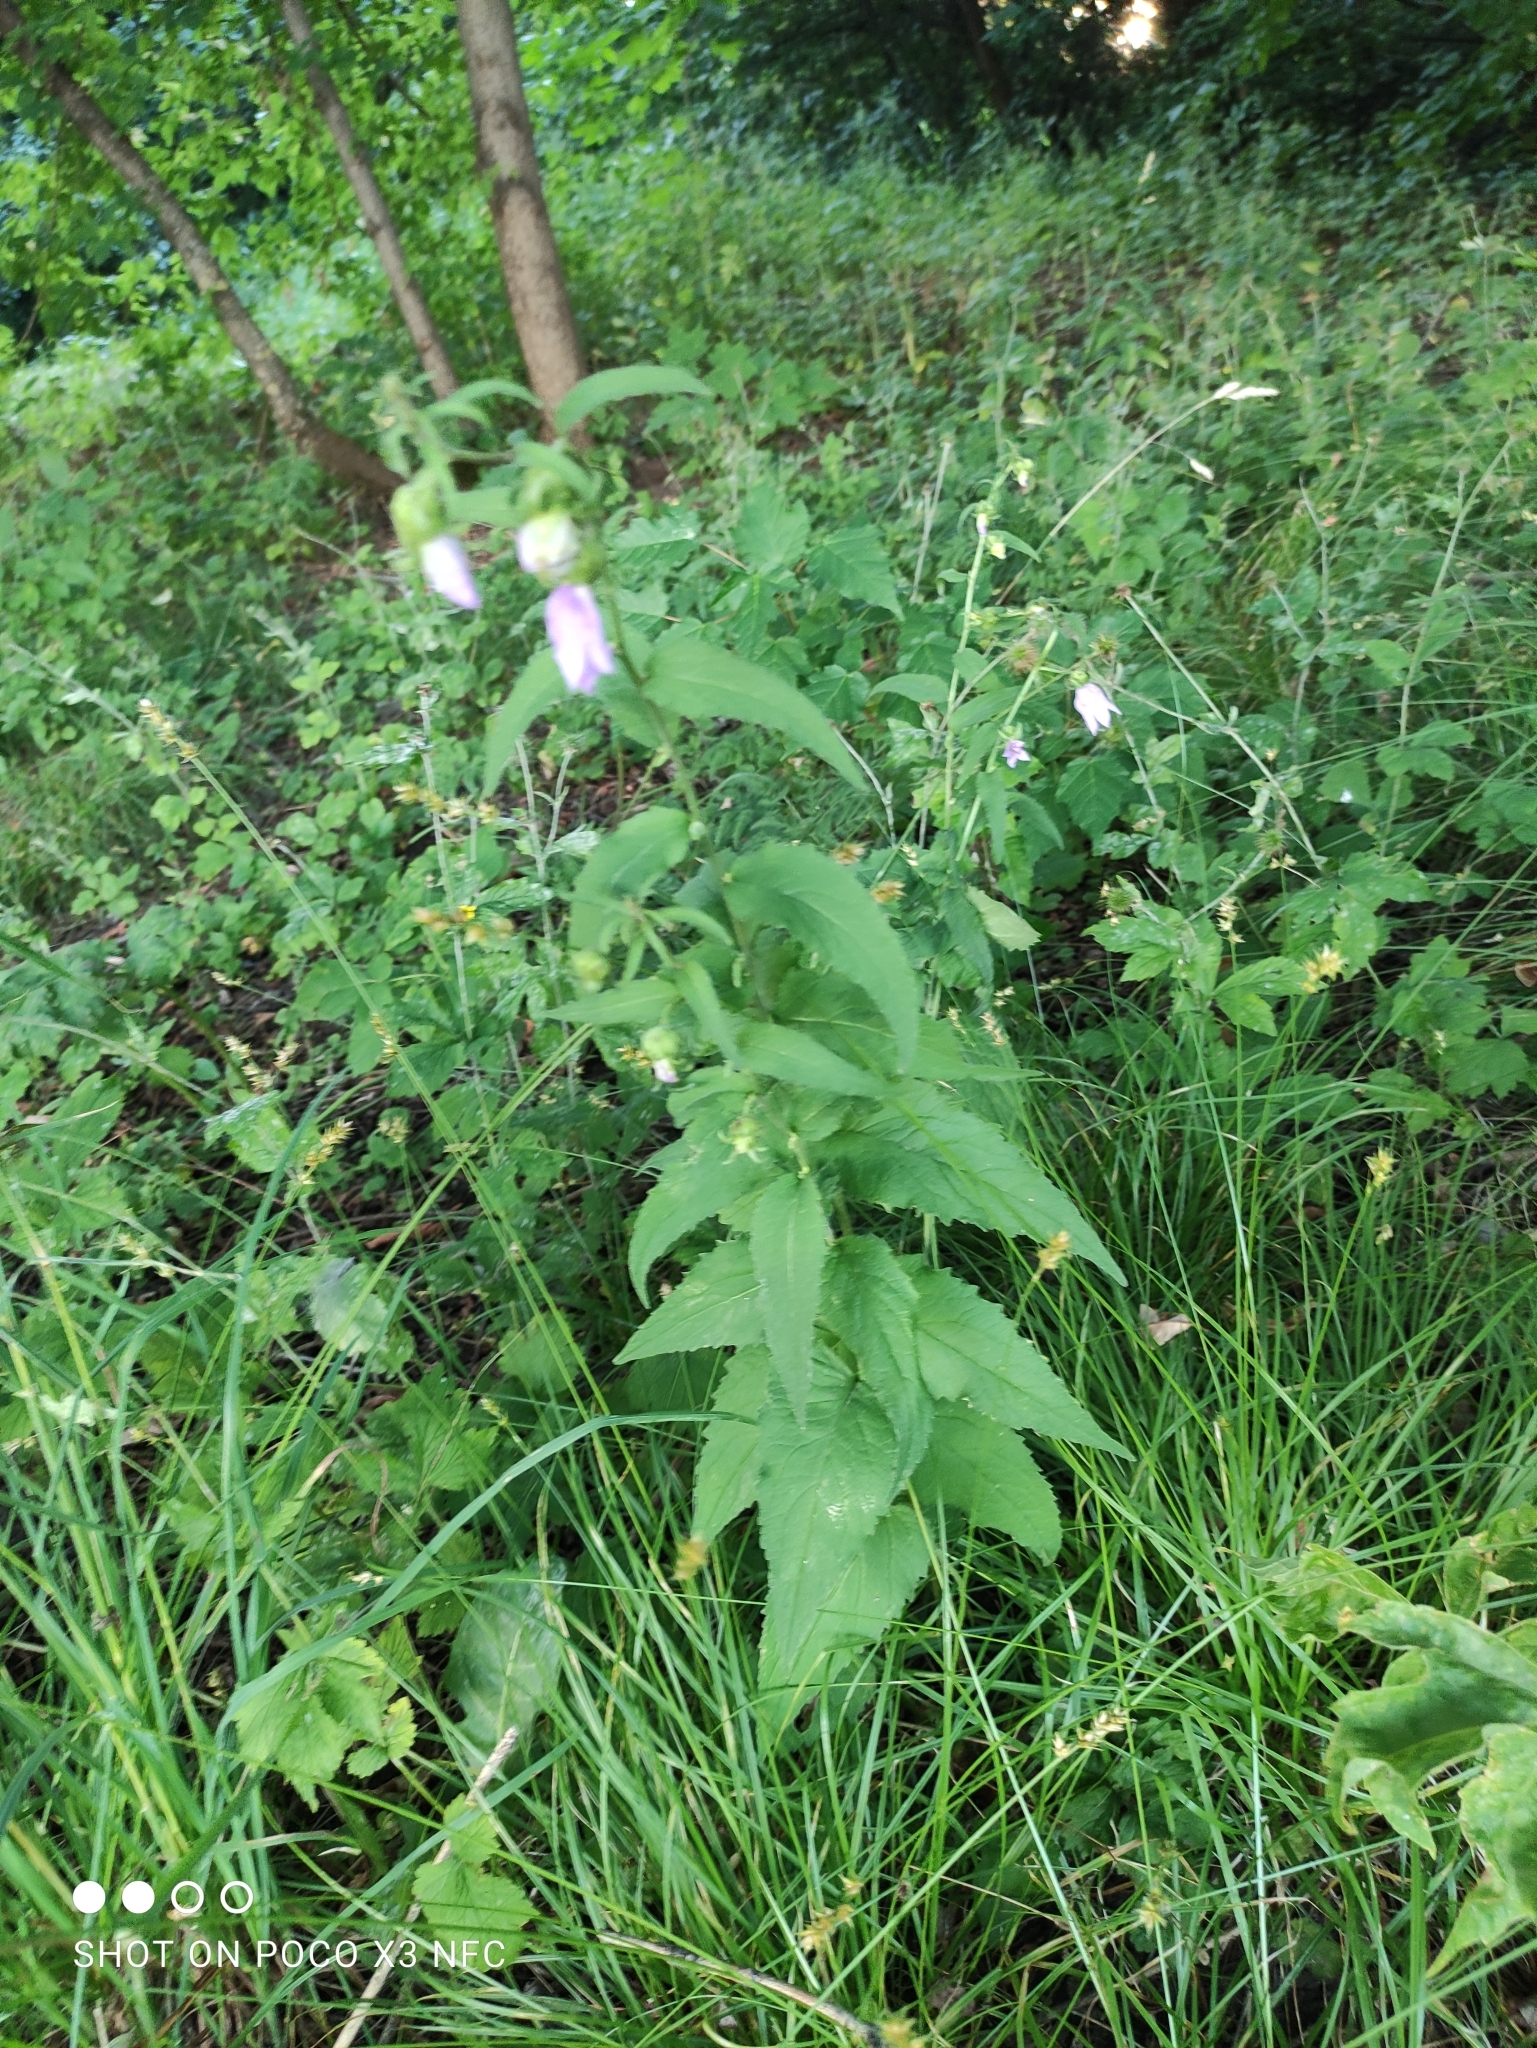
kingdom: Plantae
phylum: Tracheophyta
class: Magnoliopsida
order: Asterales
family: Campanulaceae
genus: Campanula
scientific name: Campanula trachelium
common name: Nettle-leaved bellflower
